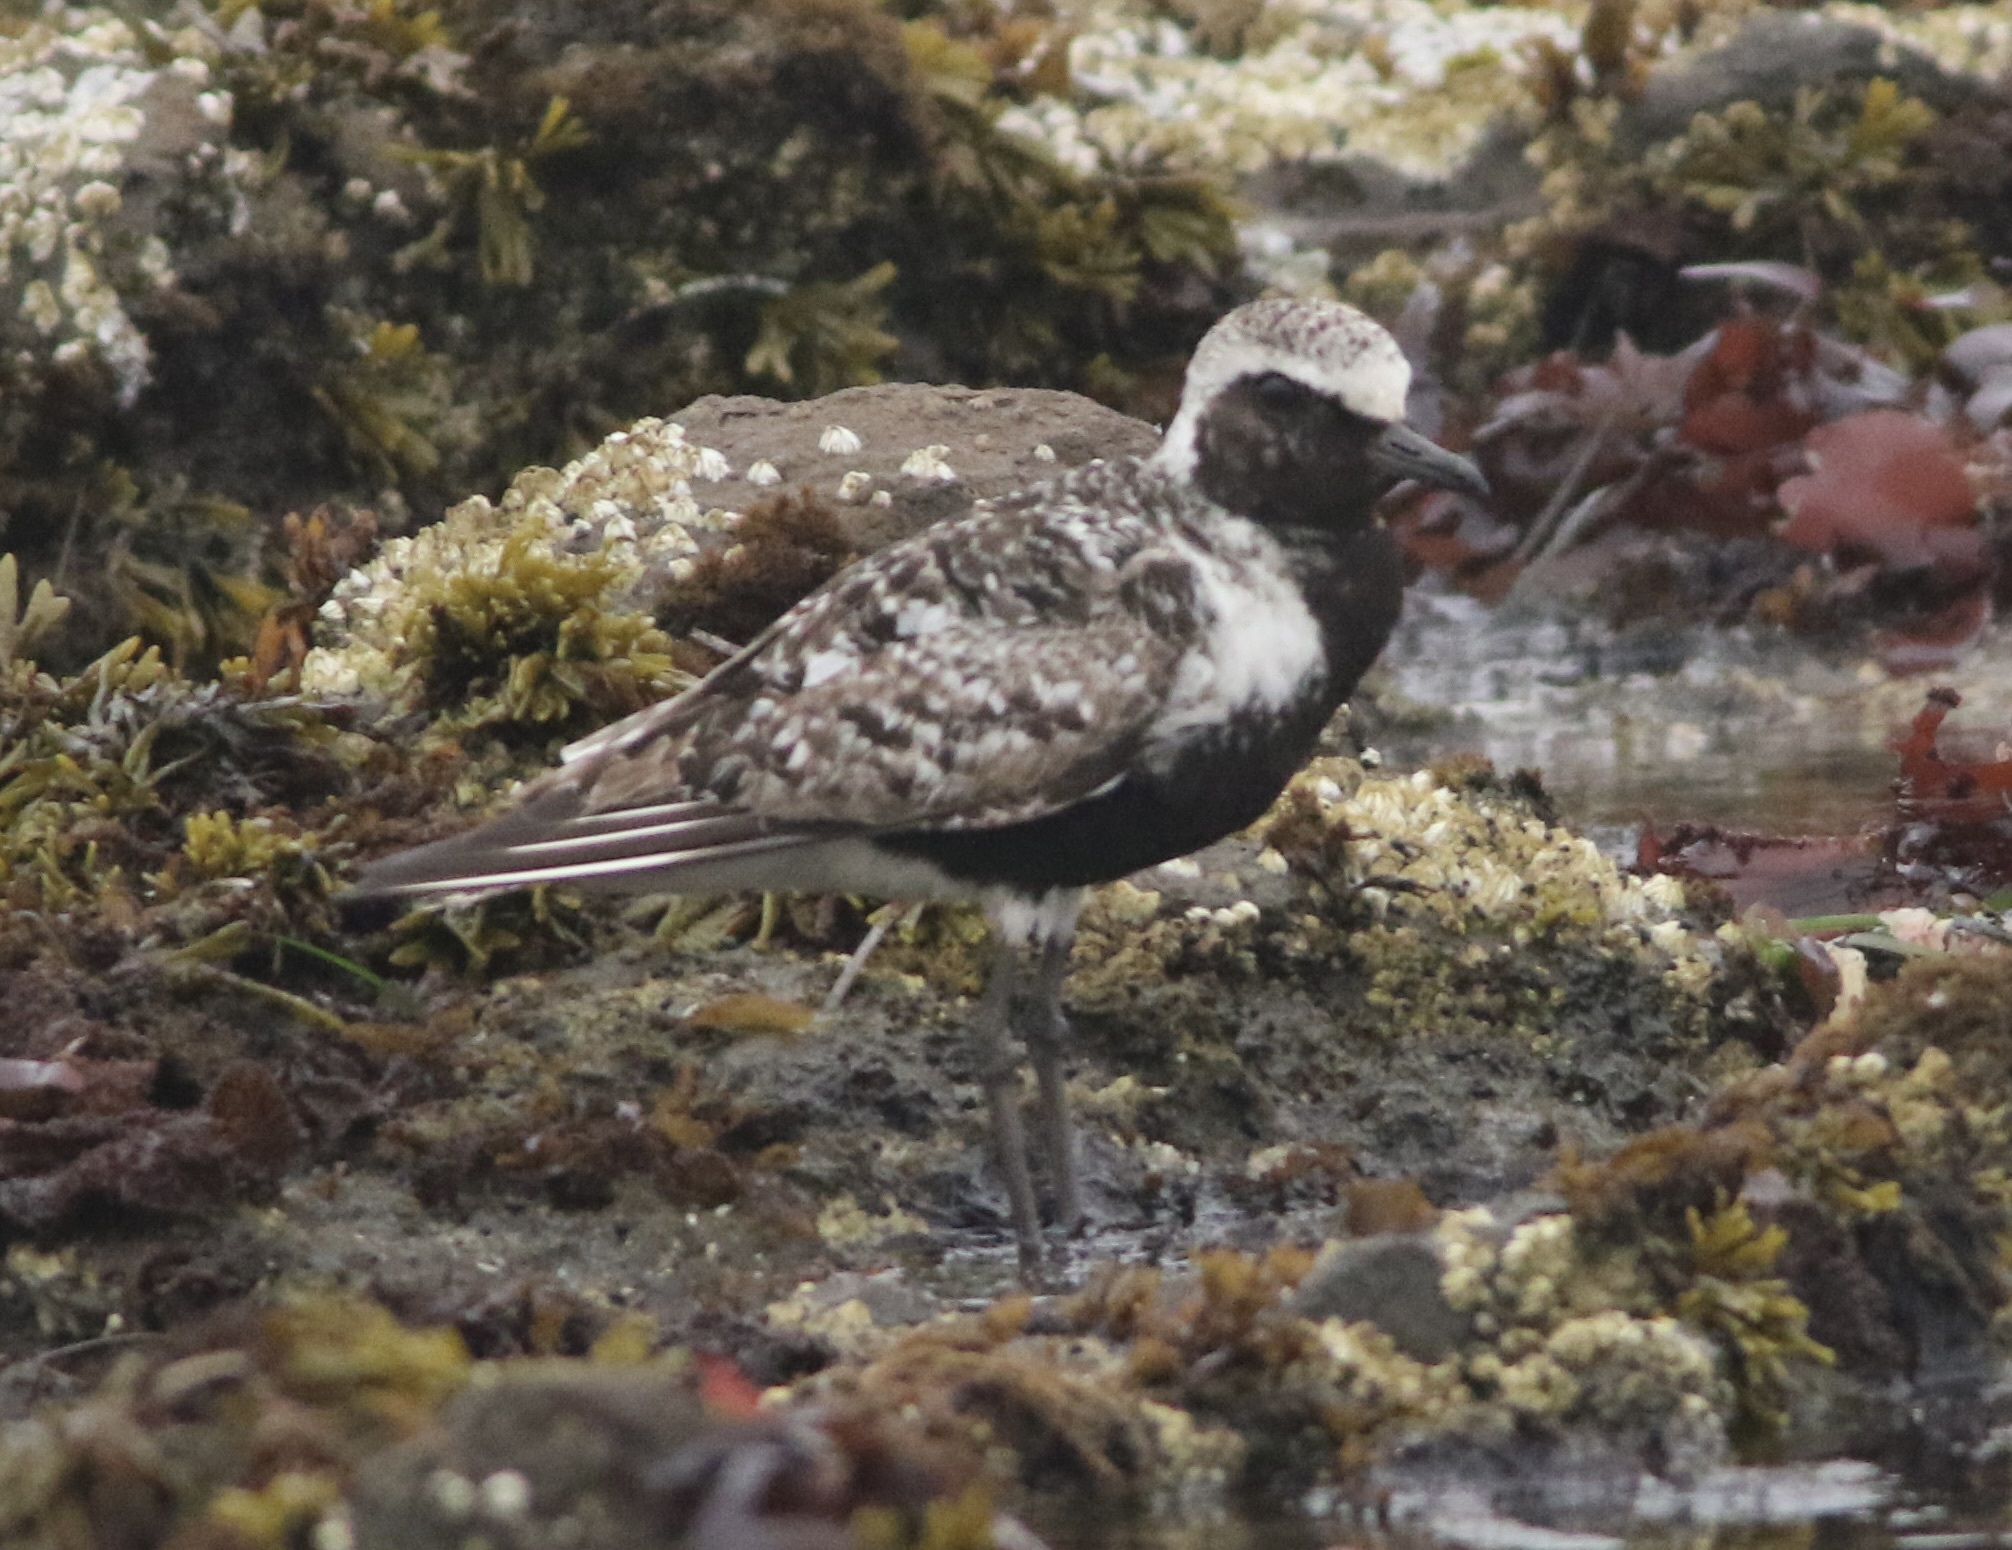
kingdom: Animalia
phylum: Chordata
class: Aves
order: Charadriiformes
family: Charadriidae
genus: Pluvialis
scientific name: Pluvialis squatarola
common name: Grey plover
